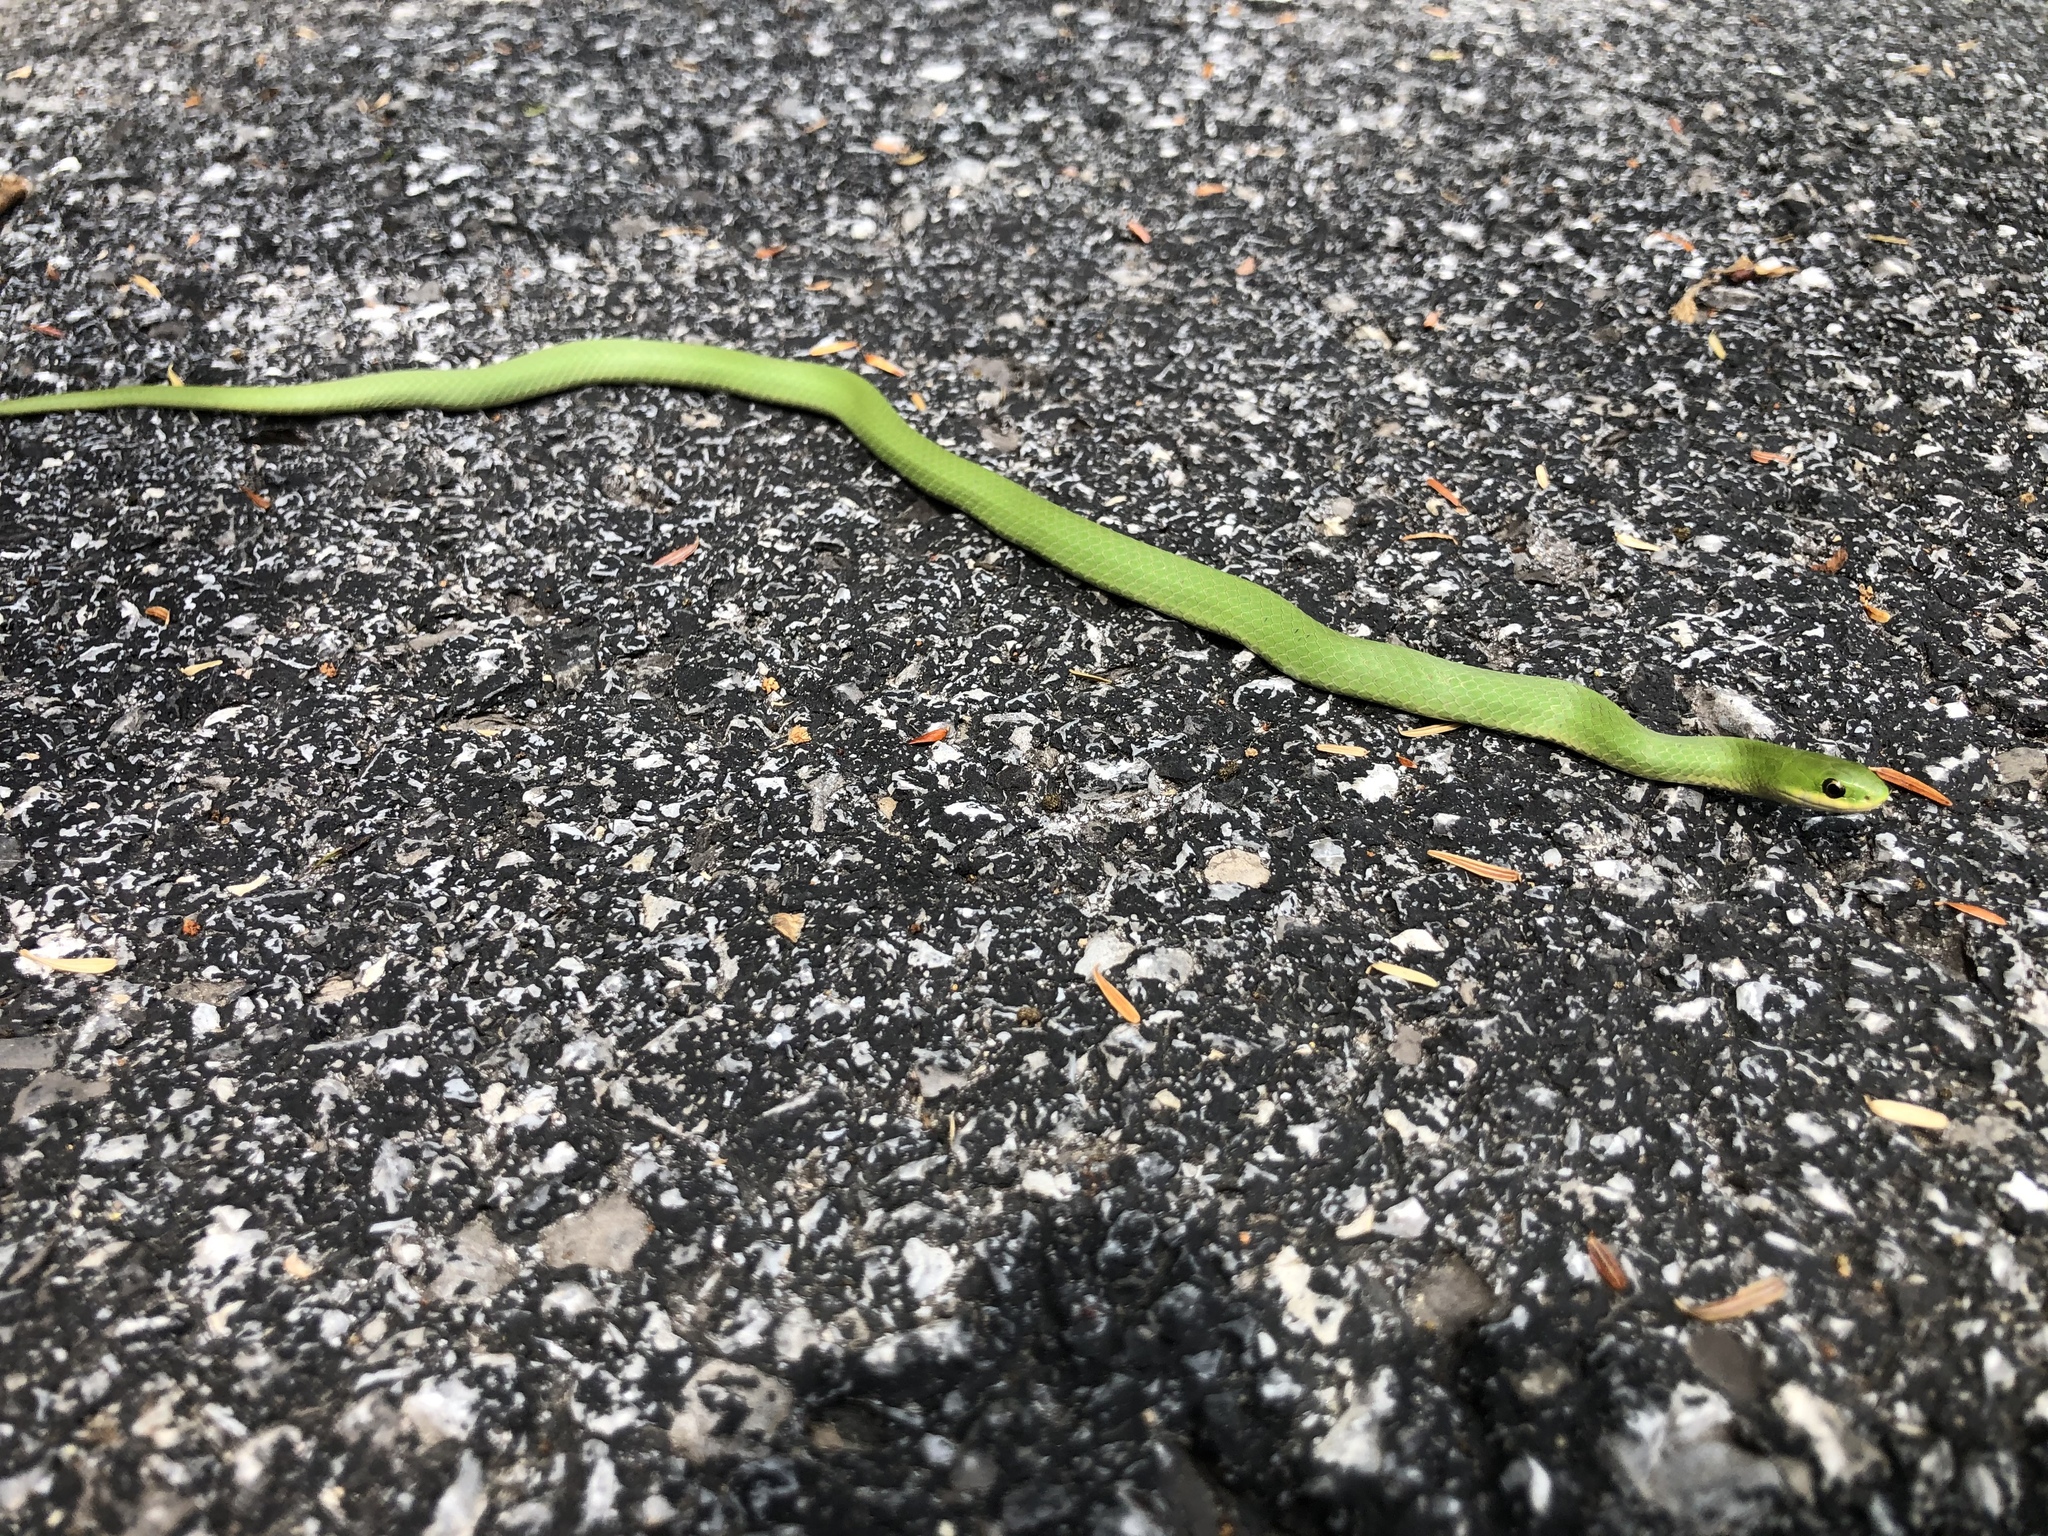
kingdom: Animalia
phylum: Chordata
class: Squamata
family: Colubridae
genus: Opheodrys
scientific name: Opheodrys vernalis
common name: Smooth green snake
